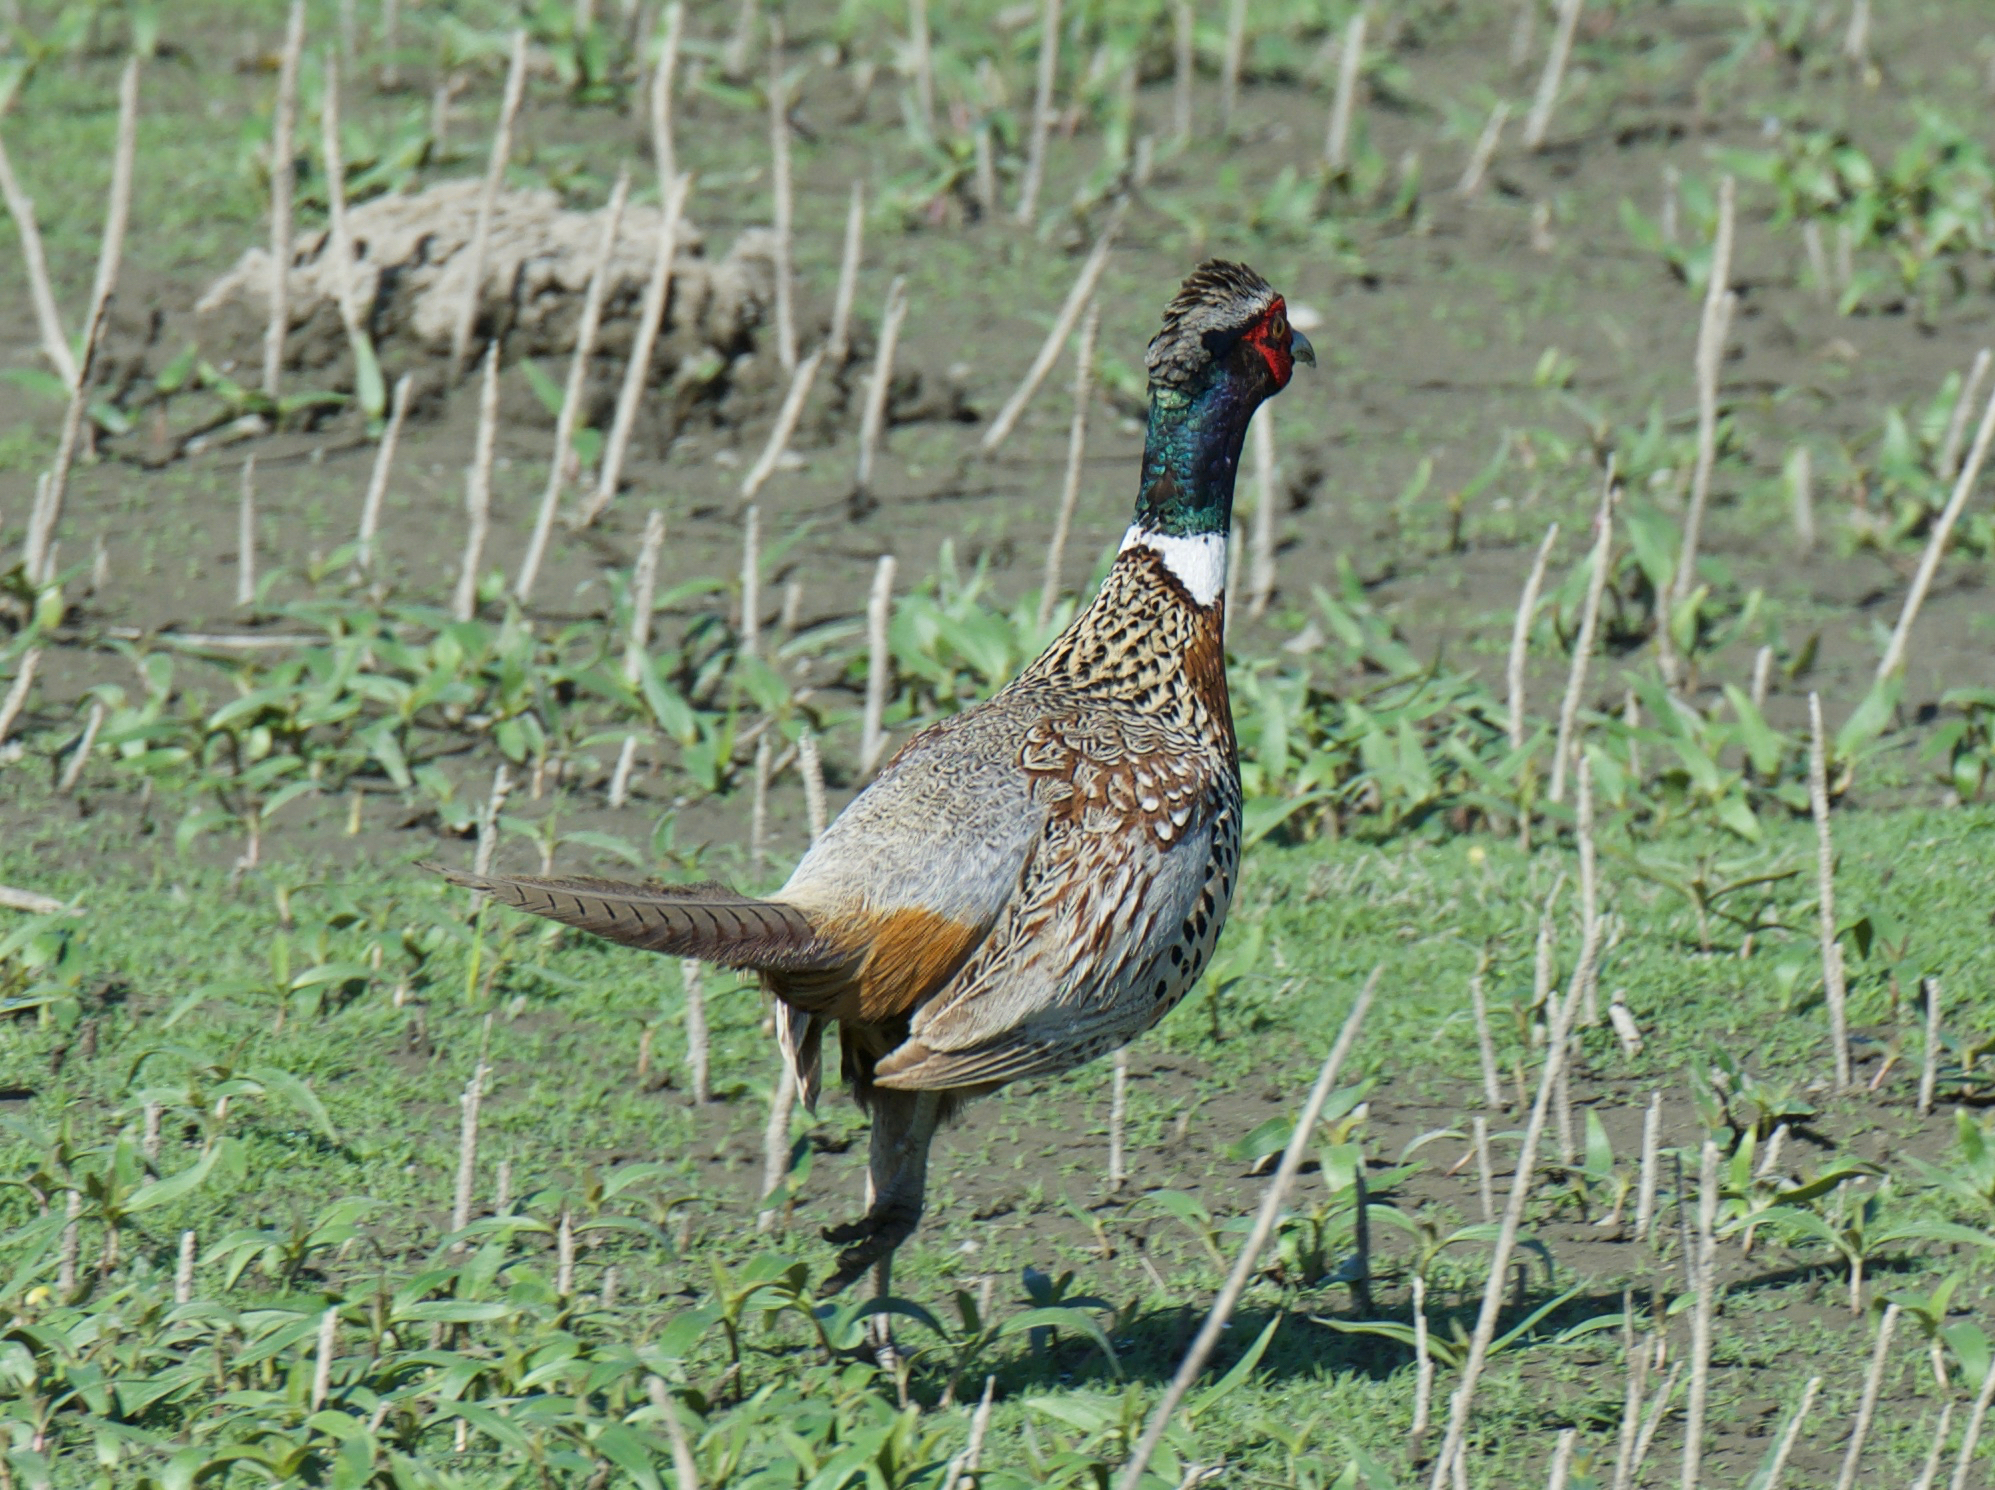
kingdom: Animalia
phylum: Chordata
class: Aves
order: Galliformes
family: Phasianidae
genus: Phasianus
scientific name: Phasianus colchicus
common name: Common pheasant
